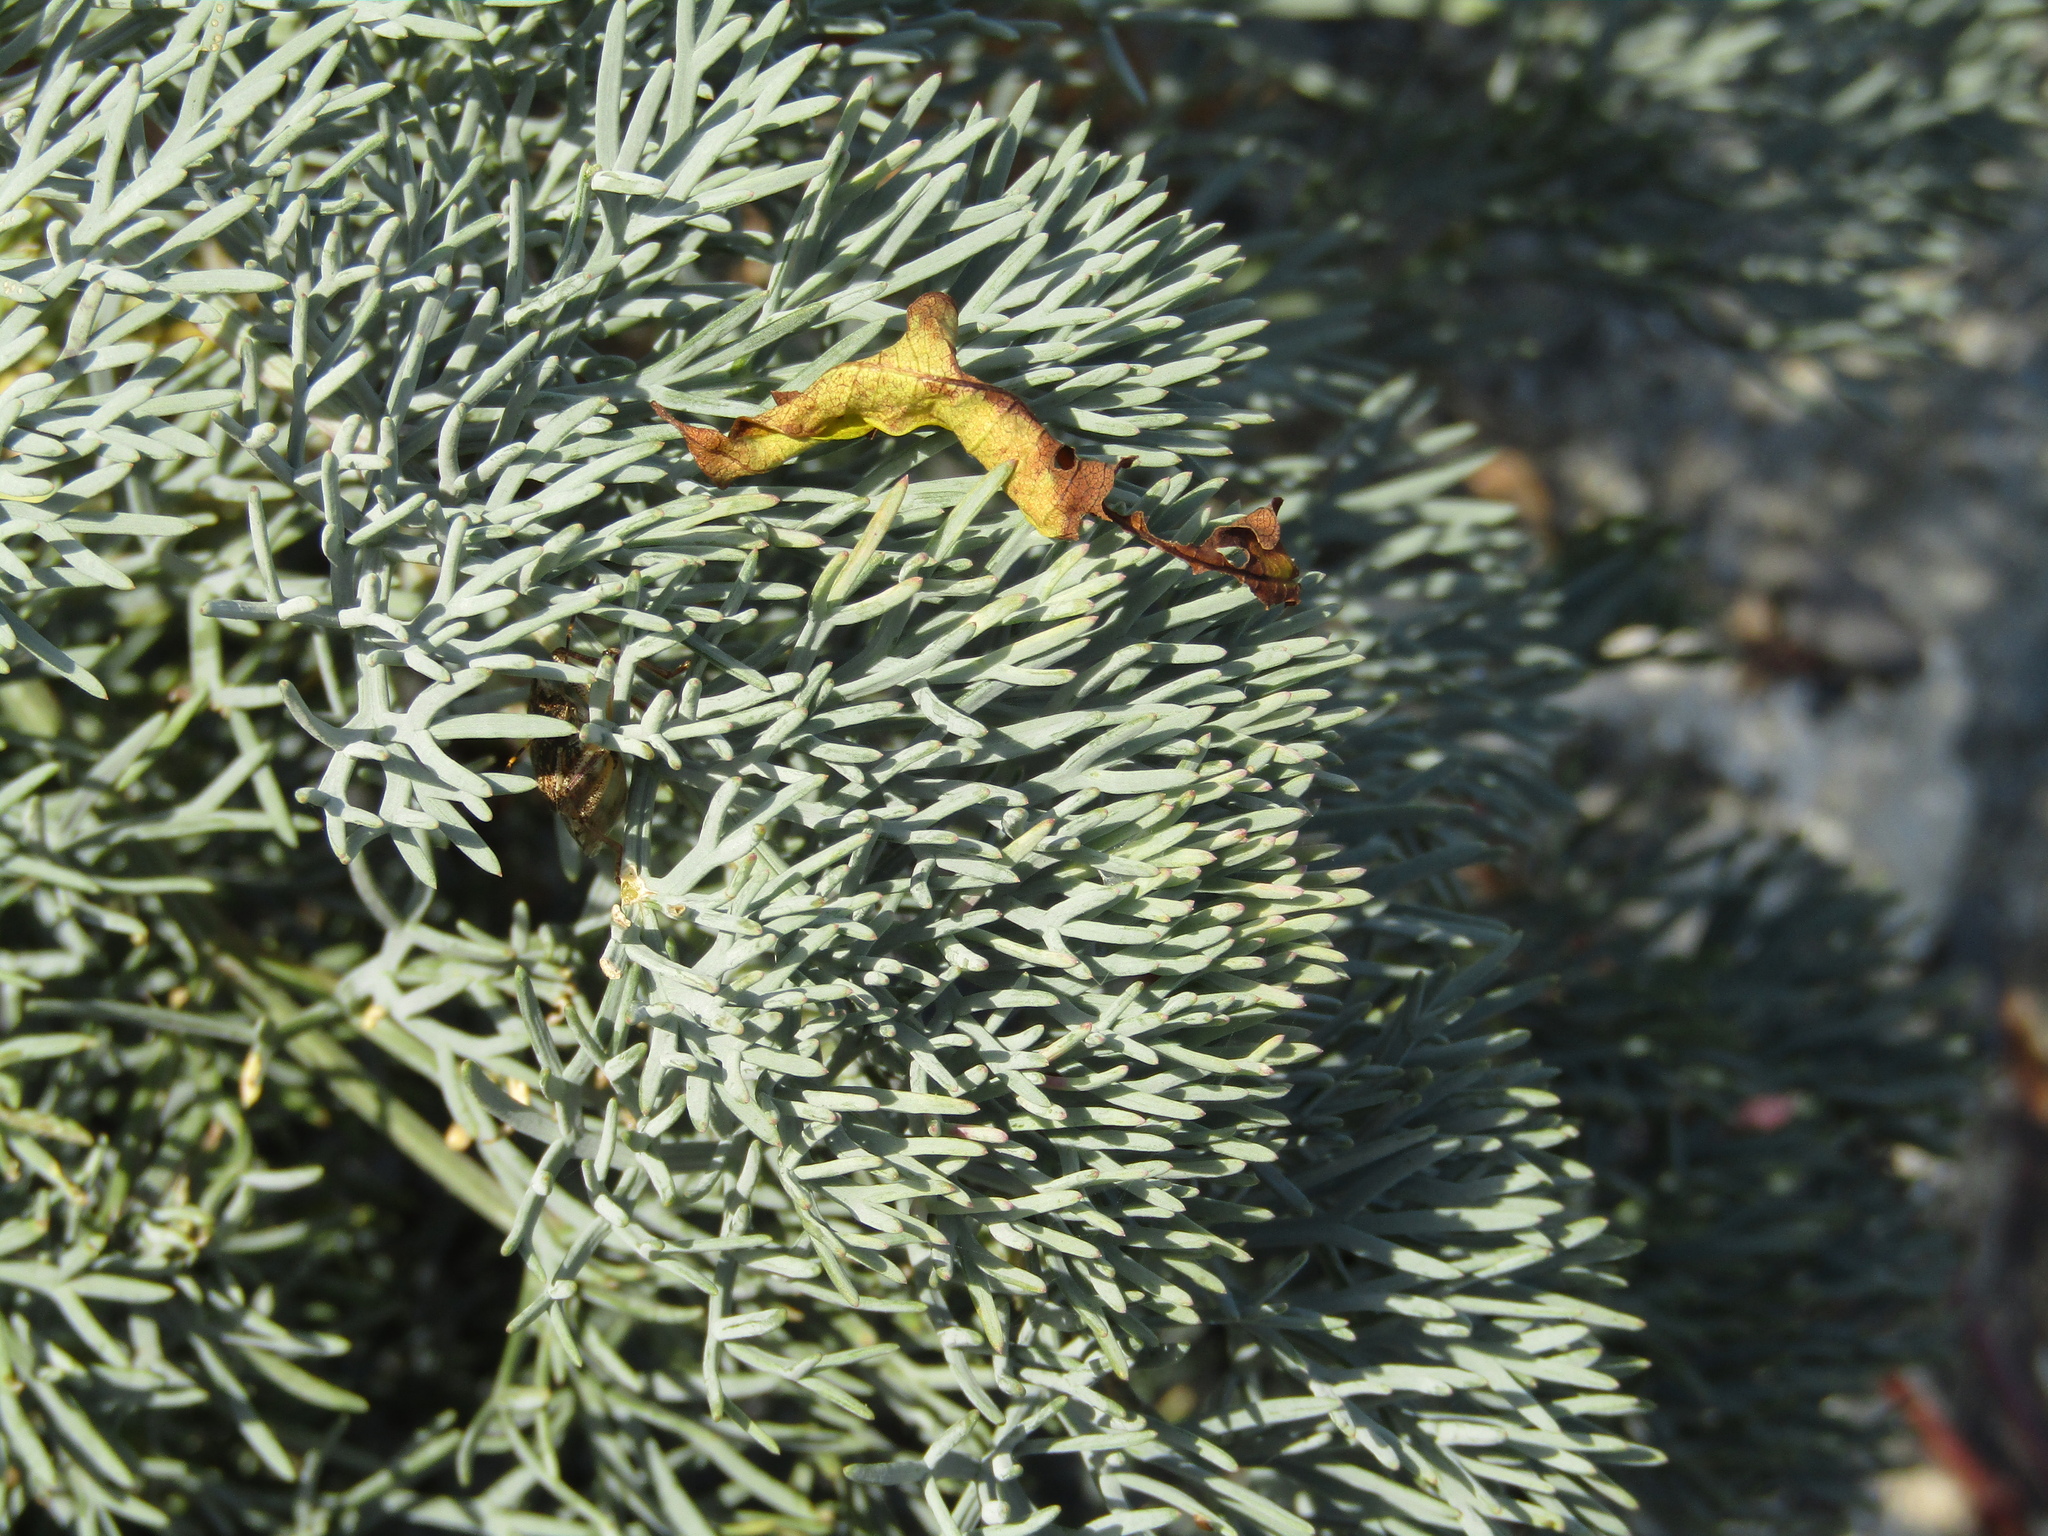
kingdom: Plantae
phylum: Tracheophyta
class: Magnoliopsida
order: Apiales
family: Apiaceae
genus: Seseli
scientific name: Seseli ponticum
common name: Pontic seseli
